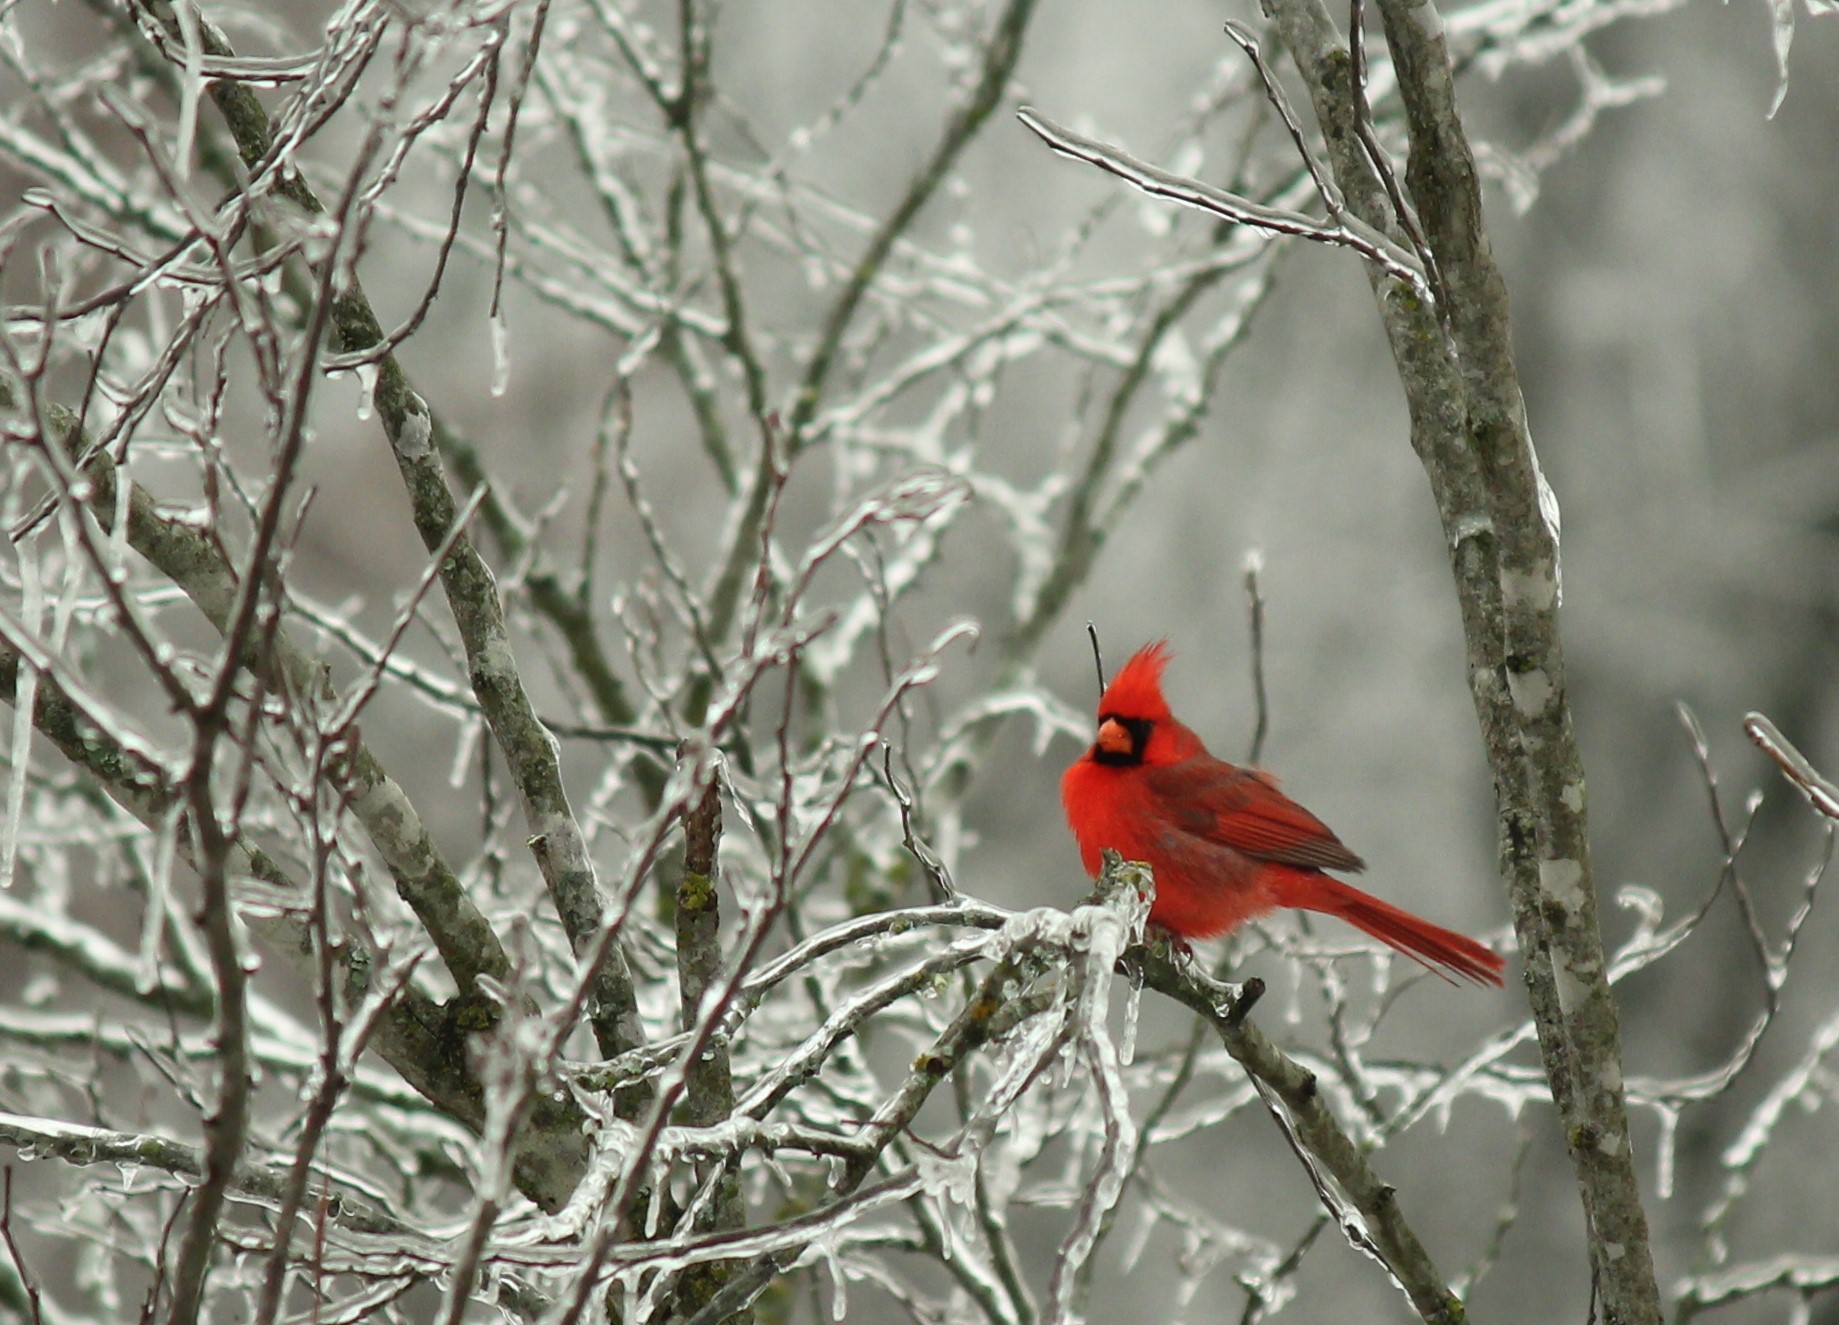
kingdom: Animalia
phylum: Chordata
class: Aves
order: Passeriformes
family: Cardinalidae
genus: Cardinalis
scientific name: Cardinalis cardinalis
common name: Northern cardinal
